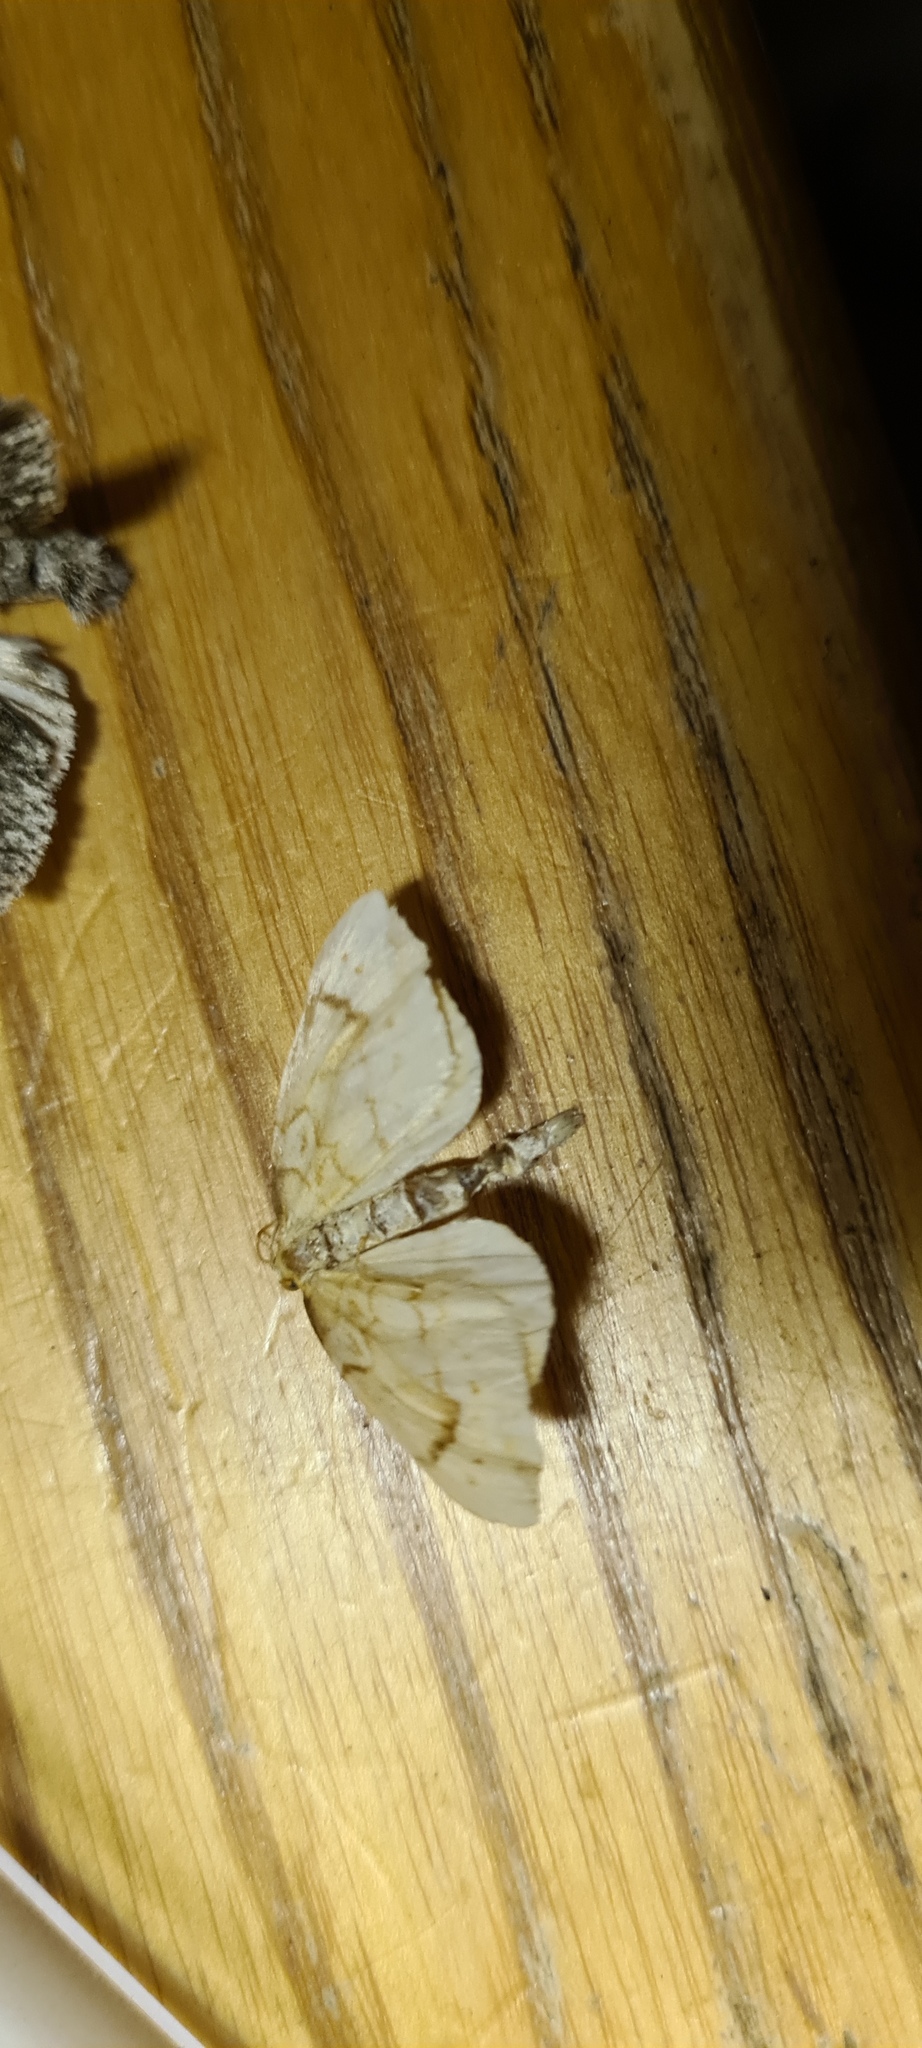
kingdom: Animalia
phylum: Arthropoda
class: Insecta
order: Lepidoptera
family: Geometridae
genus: Eulithis
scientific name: Eulithis pyraliata
